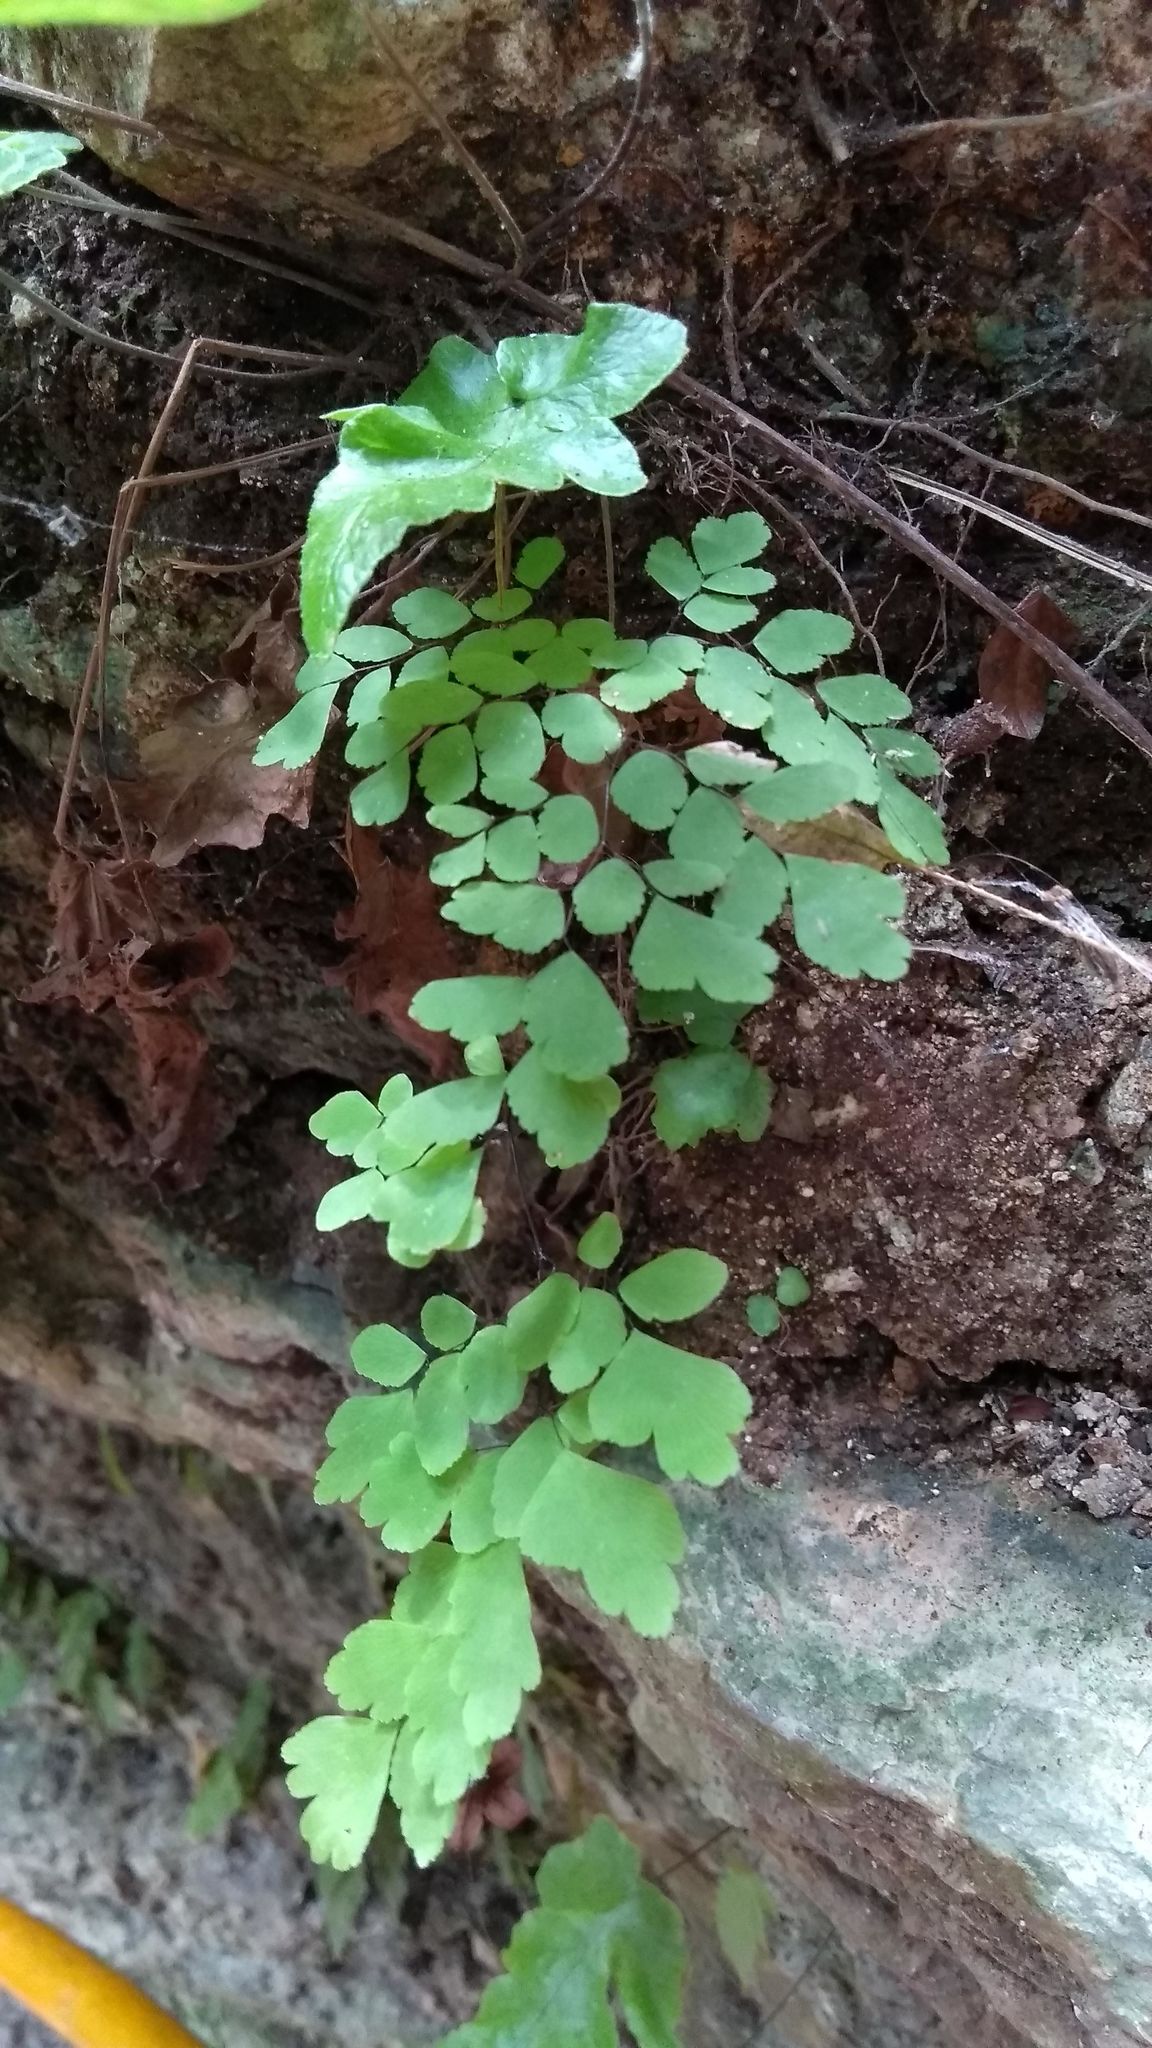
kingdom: Plantae
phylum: Tracheophyta
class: Polypodiopsida
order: Polypodiales
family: Pteridaceae
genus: Adiantum
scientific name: Adiantum capillus-veneris
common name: Maidenhair fern
